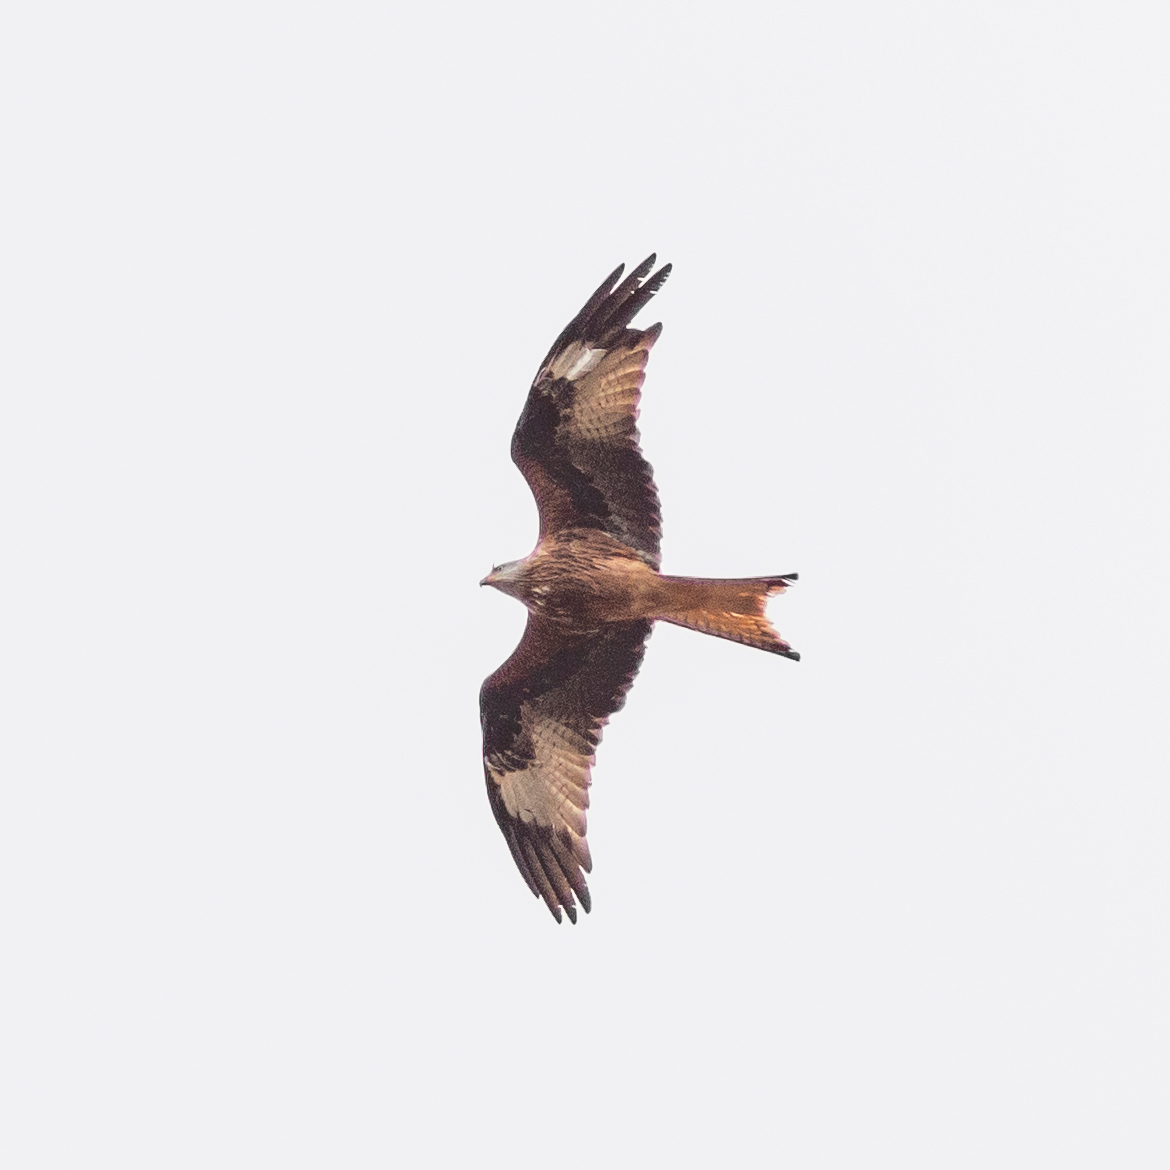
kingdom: Animalia
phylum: Chordata
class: Aves
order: Accipitriformes
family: Accipitridae
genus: Milvus
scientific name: Milvus milvus
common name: Red kite
